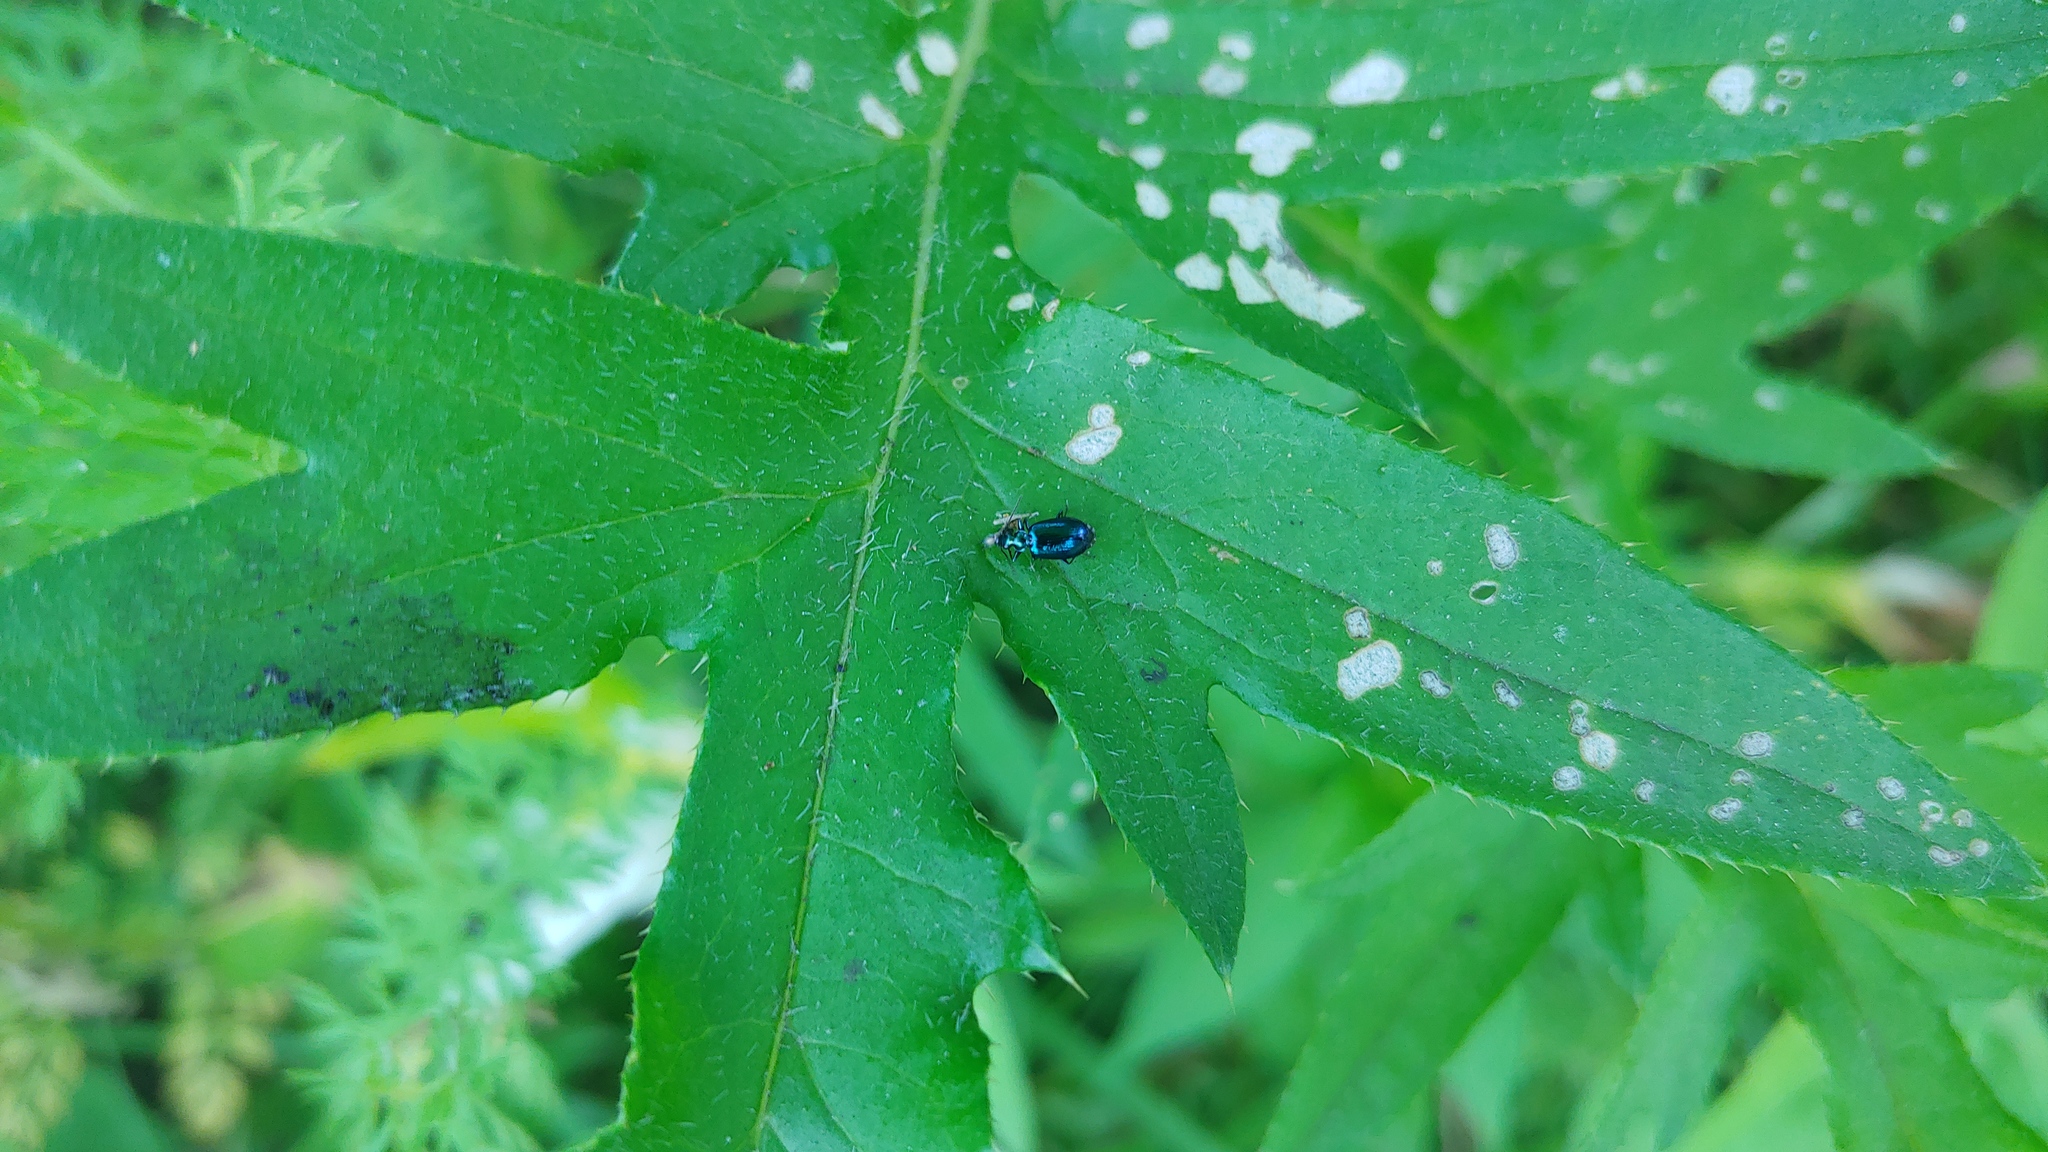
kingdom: Animalia
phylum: Arthropoda
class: Insecta
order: Coleoptera
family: Carabidae
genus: Lebia
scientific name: Lebia viridis
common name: Flower lebia beetle
